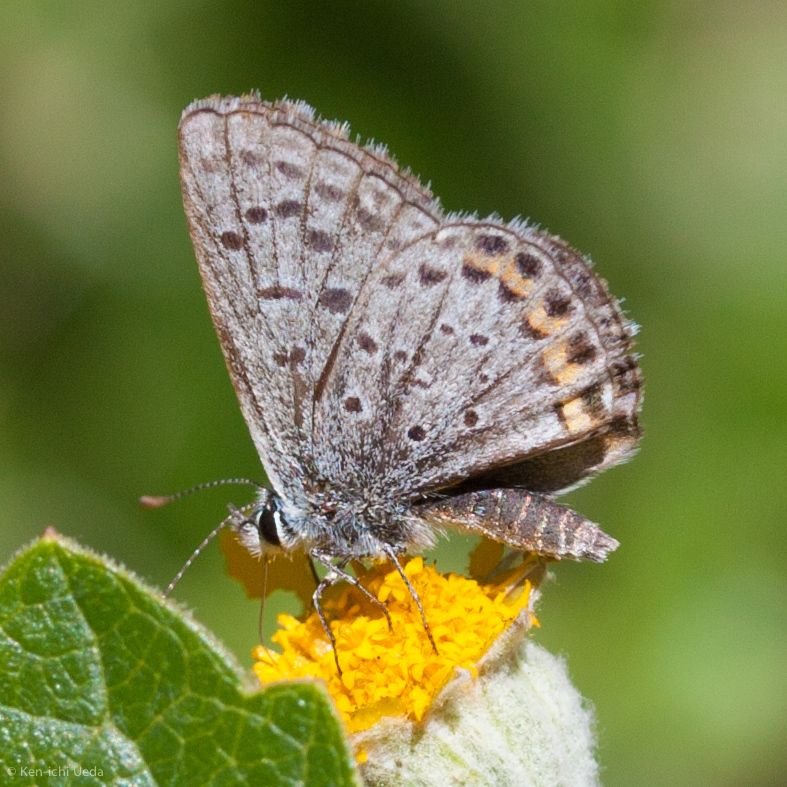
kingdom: Animalia
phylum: Arthropoda
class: Insecta
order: Lepidoptera
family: Lycaenidae
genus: Icaricia
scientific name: Icaricia acmon
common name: Acmon blue
